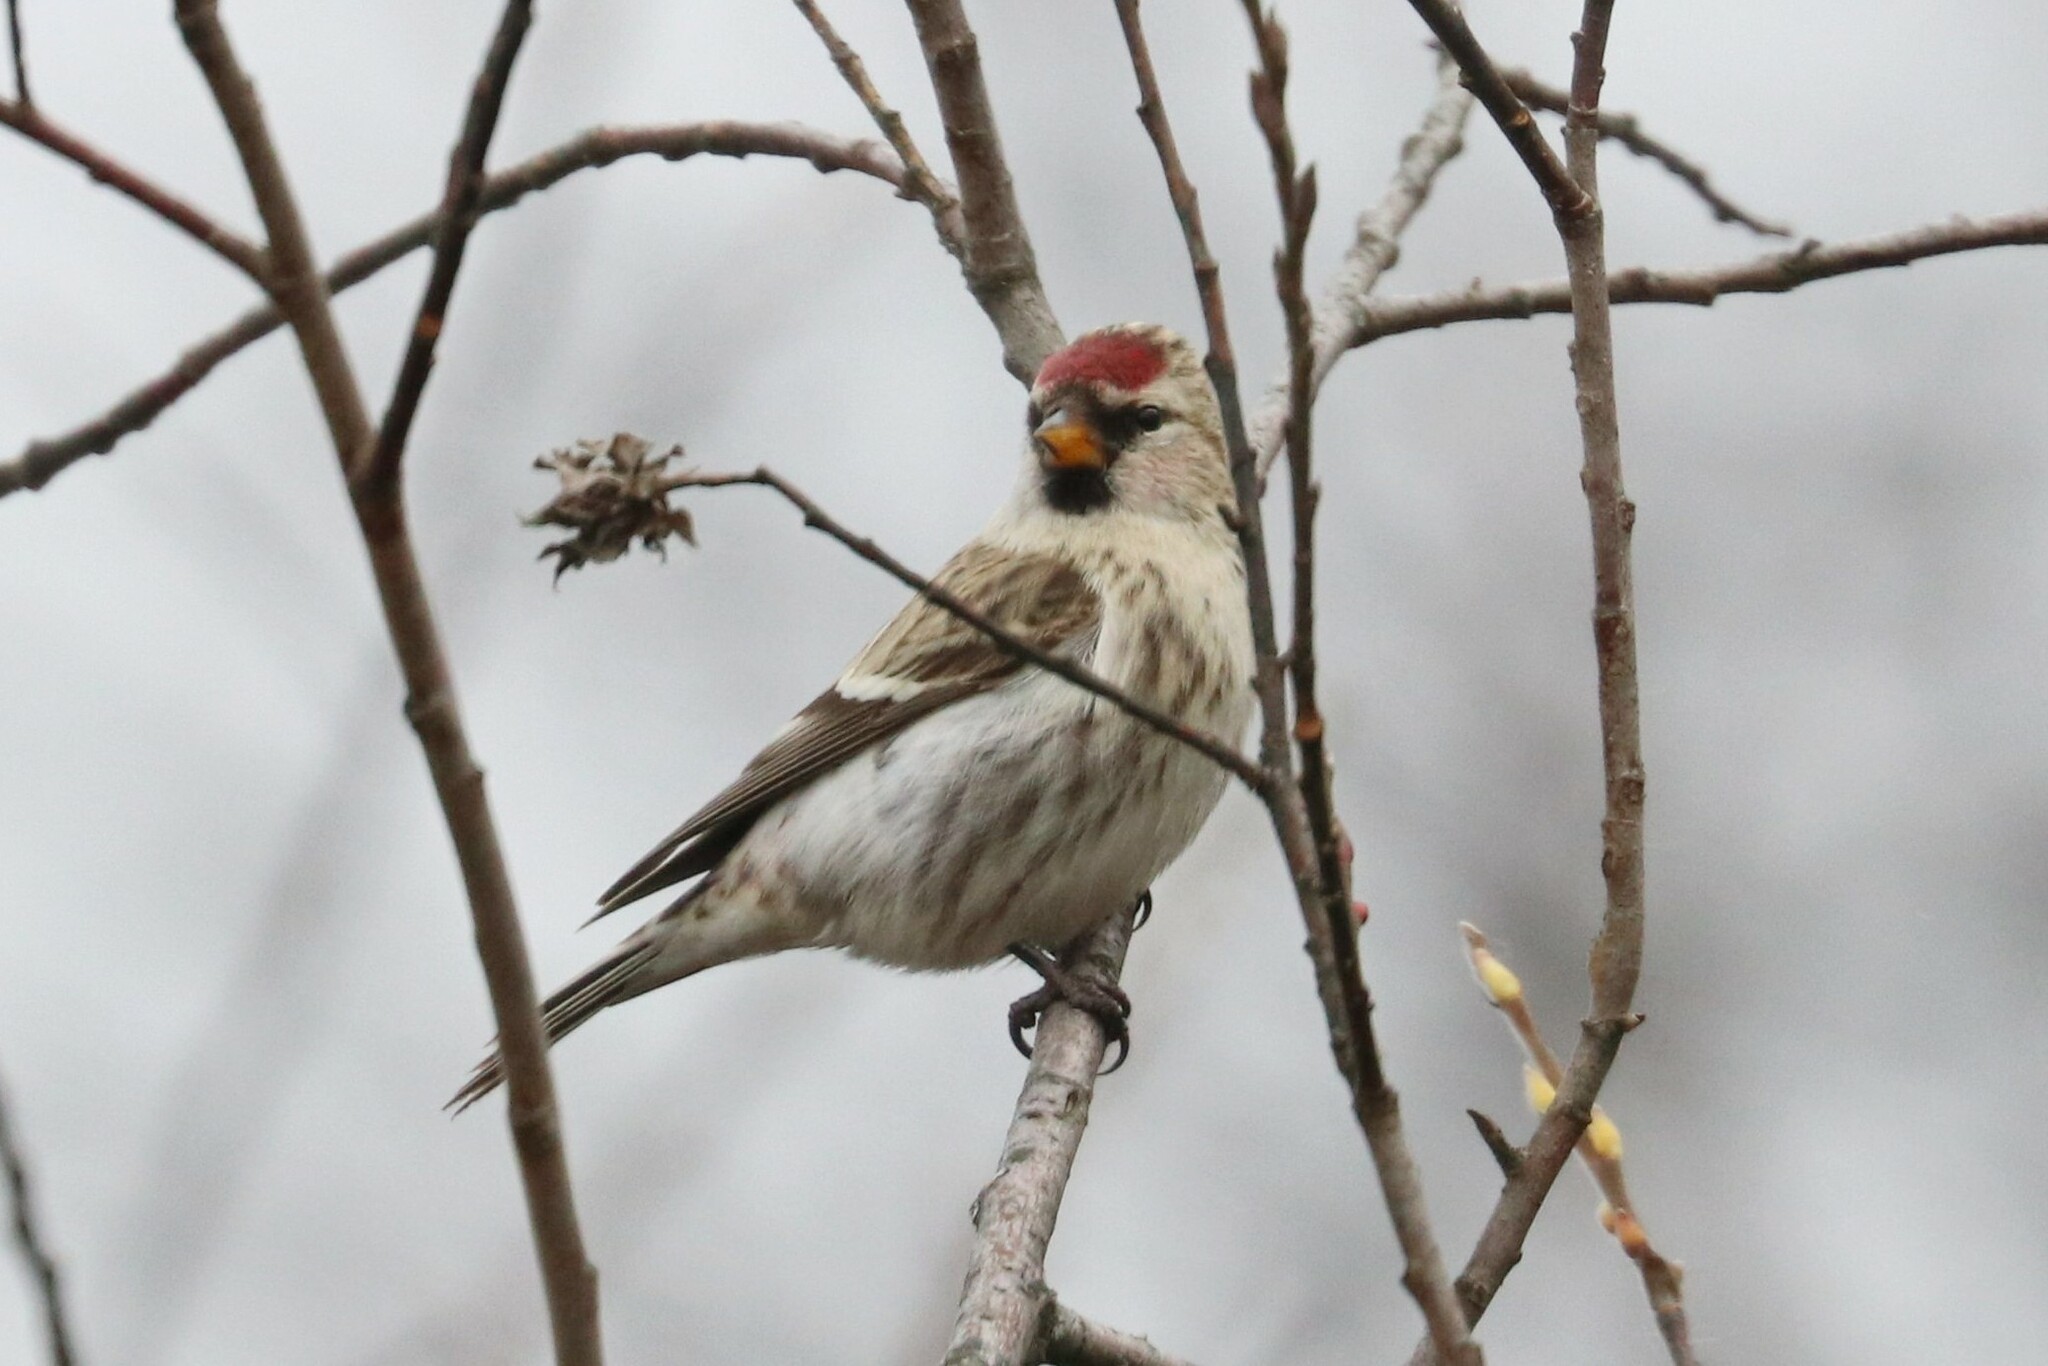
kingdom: Animalia
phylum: Chordata
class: Aves
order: Passeriformes
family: Fringillidae
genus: Acanthis
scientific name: Acanthis flammea
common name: Common redpoll
